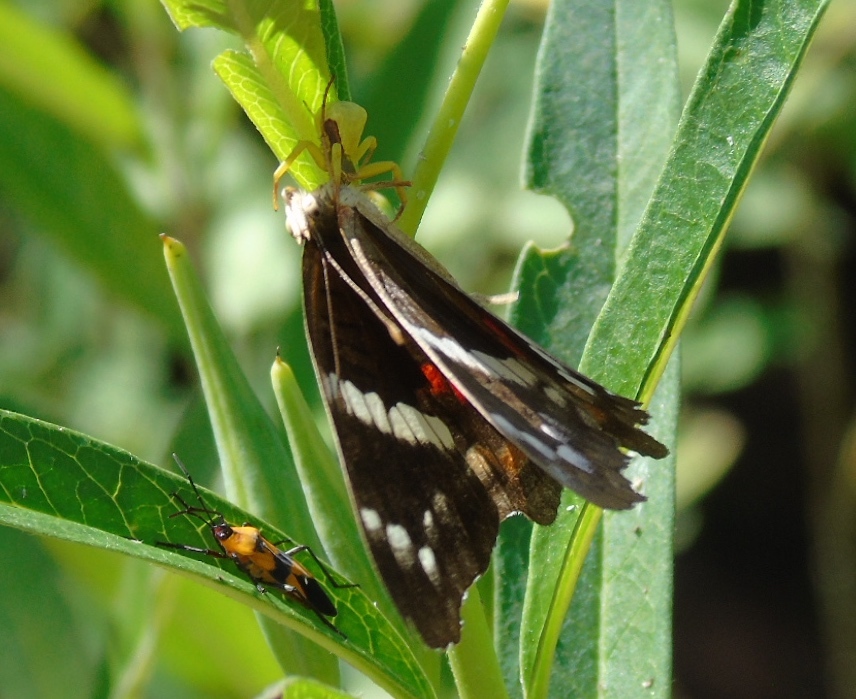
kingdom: Animalia
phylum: Arthropoda
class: Arachnida
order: Araneae
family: Thomisidae
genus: Misumenoides
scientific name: Misumenoides
